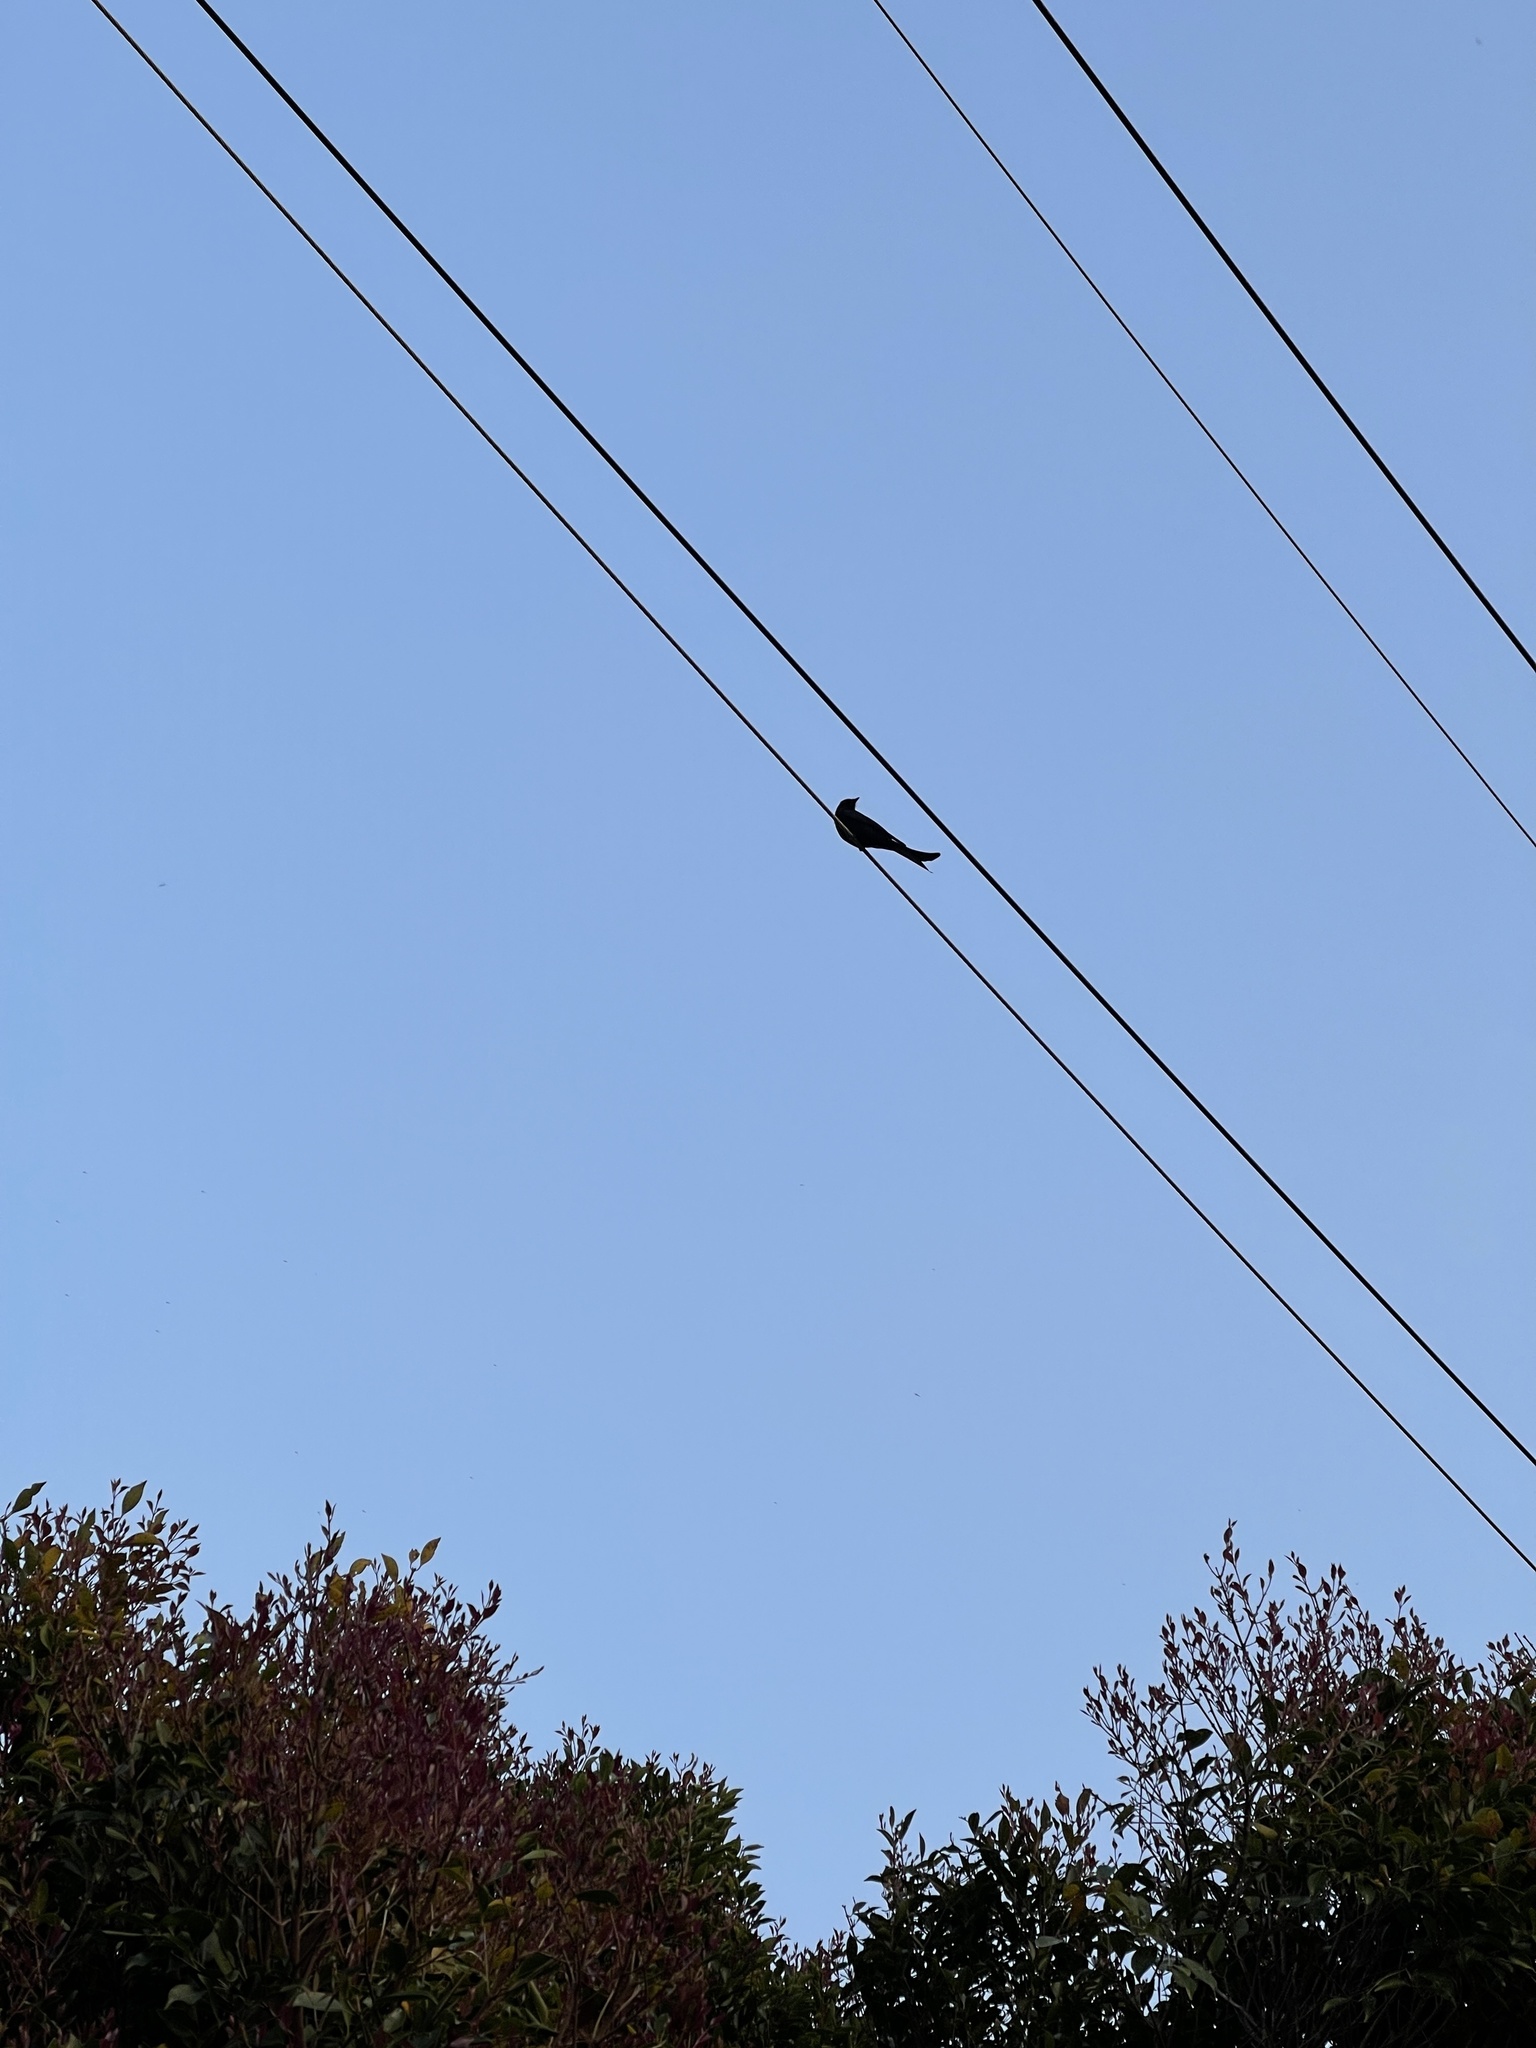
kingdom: Animalia
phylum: Chordata
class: Aves
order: Passeriformes
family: Dicruridae
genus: Dicrurus
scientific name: Dicrurus macrocercus
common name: Black drongo
